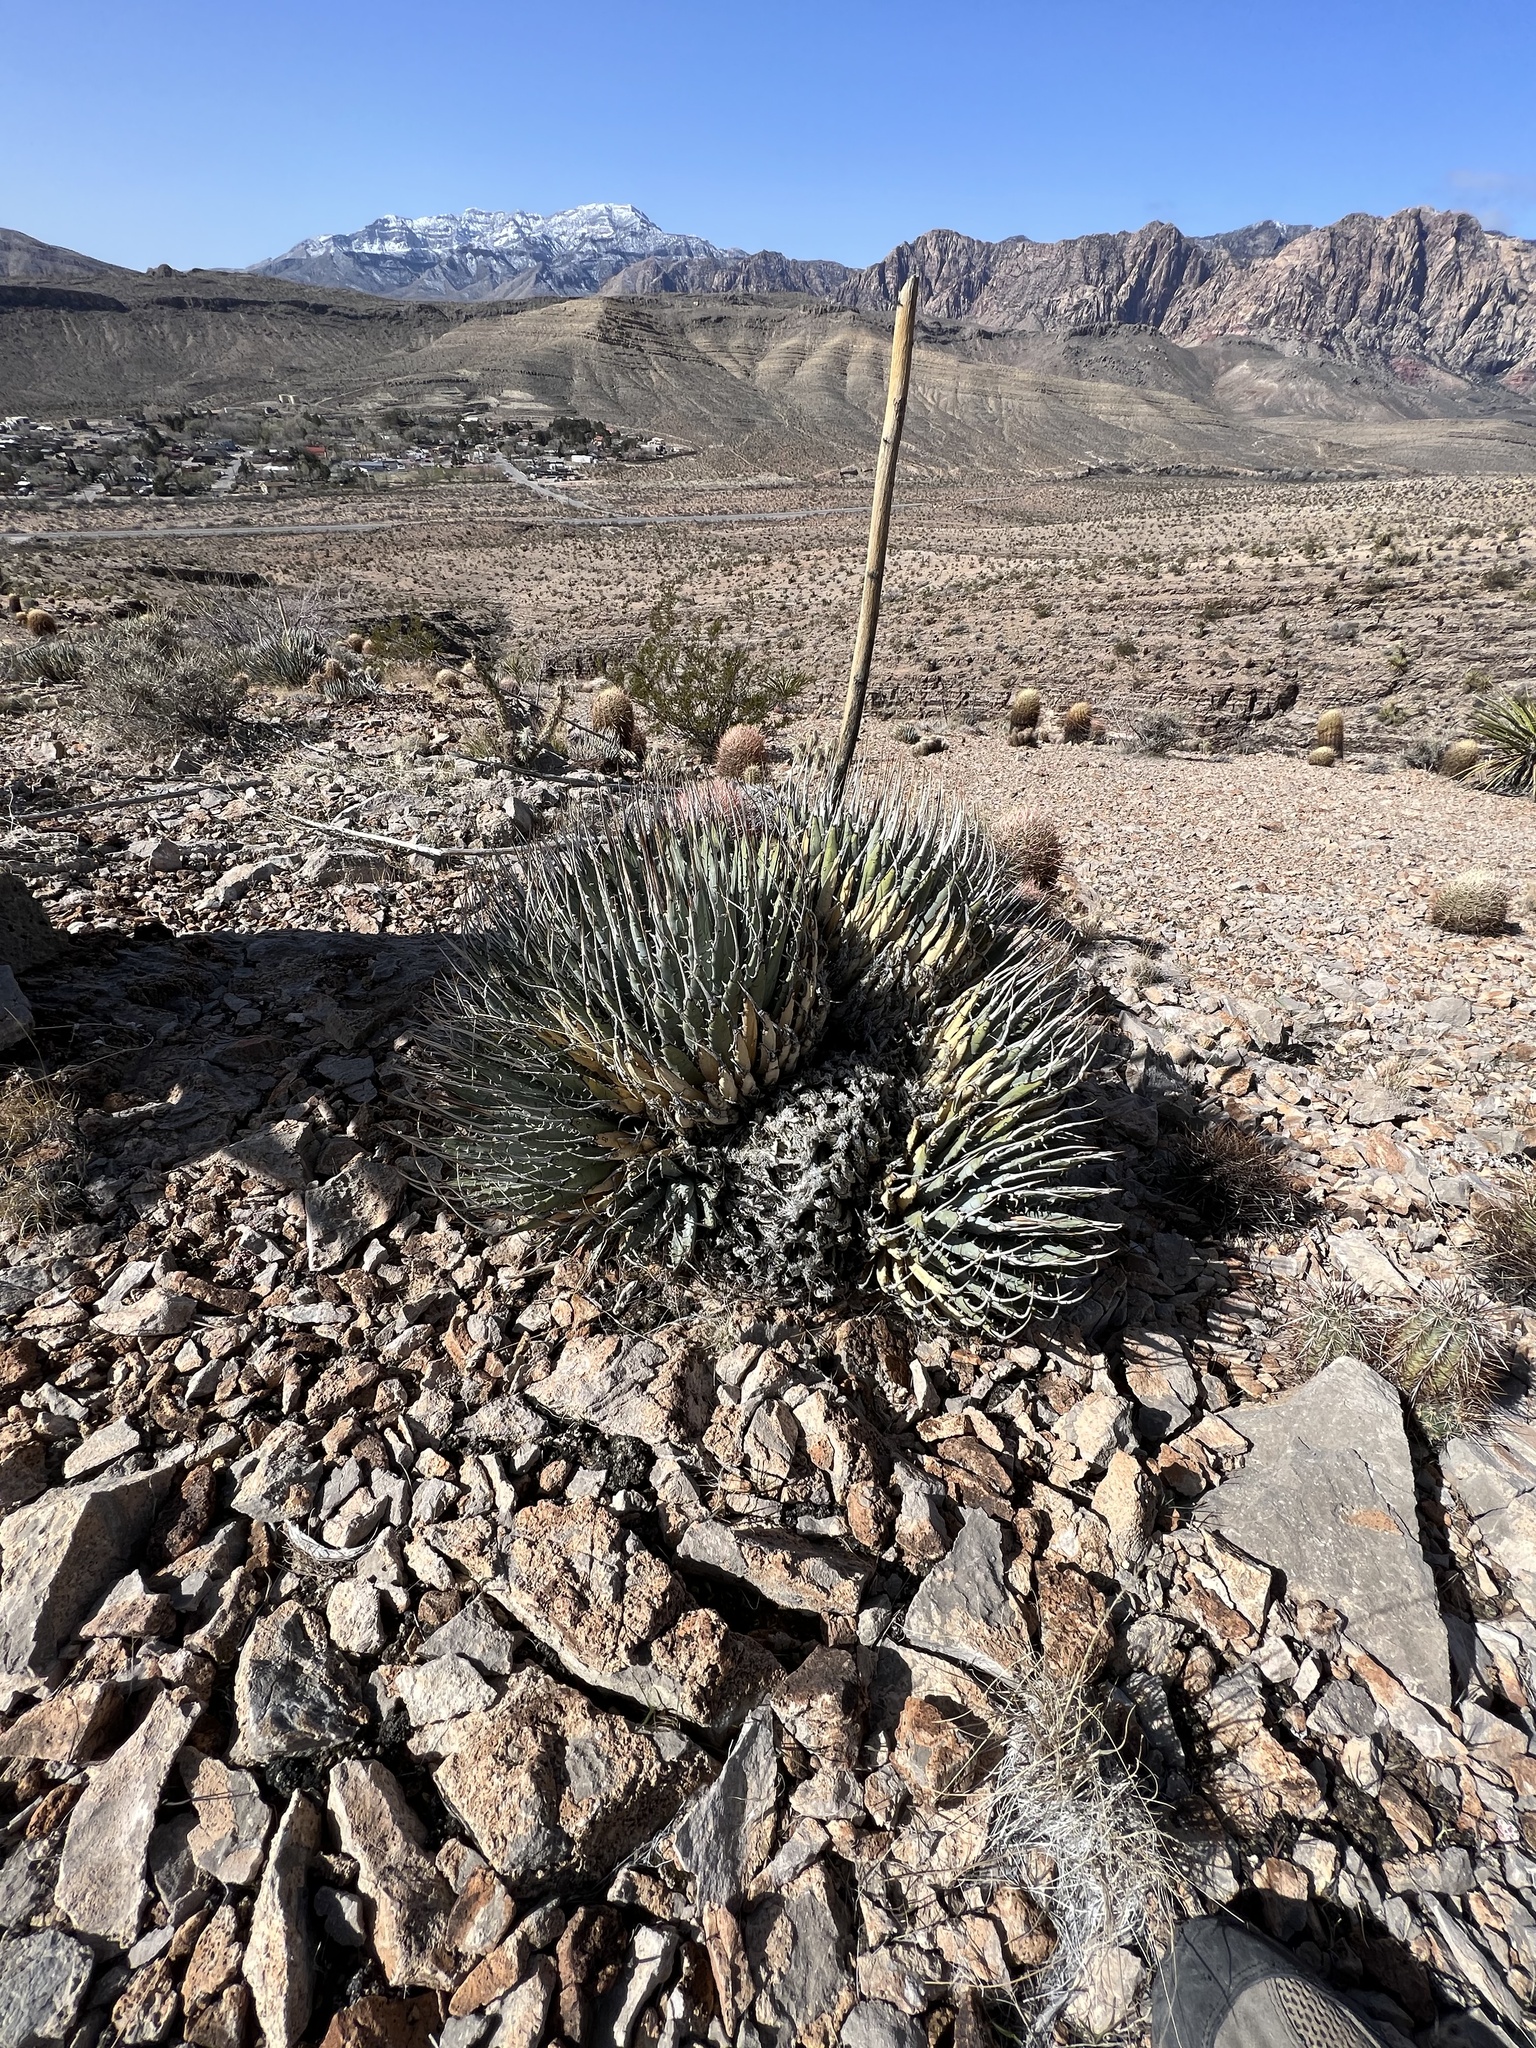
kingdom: Plantae
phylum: Tracheophyta
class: Liliopsida
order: Asparagales
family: Asparagaceae
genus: Agave
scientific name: Agave utahensis
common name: Utah agave
